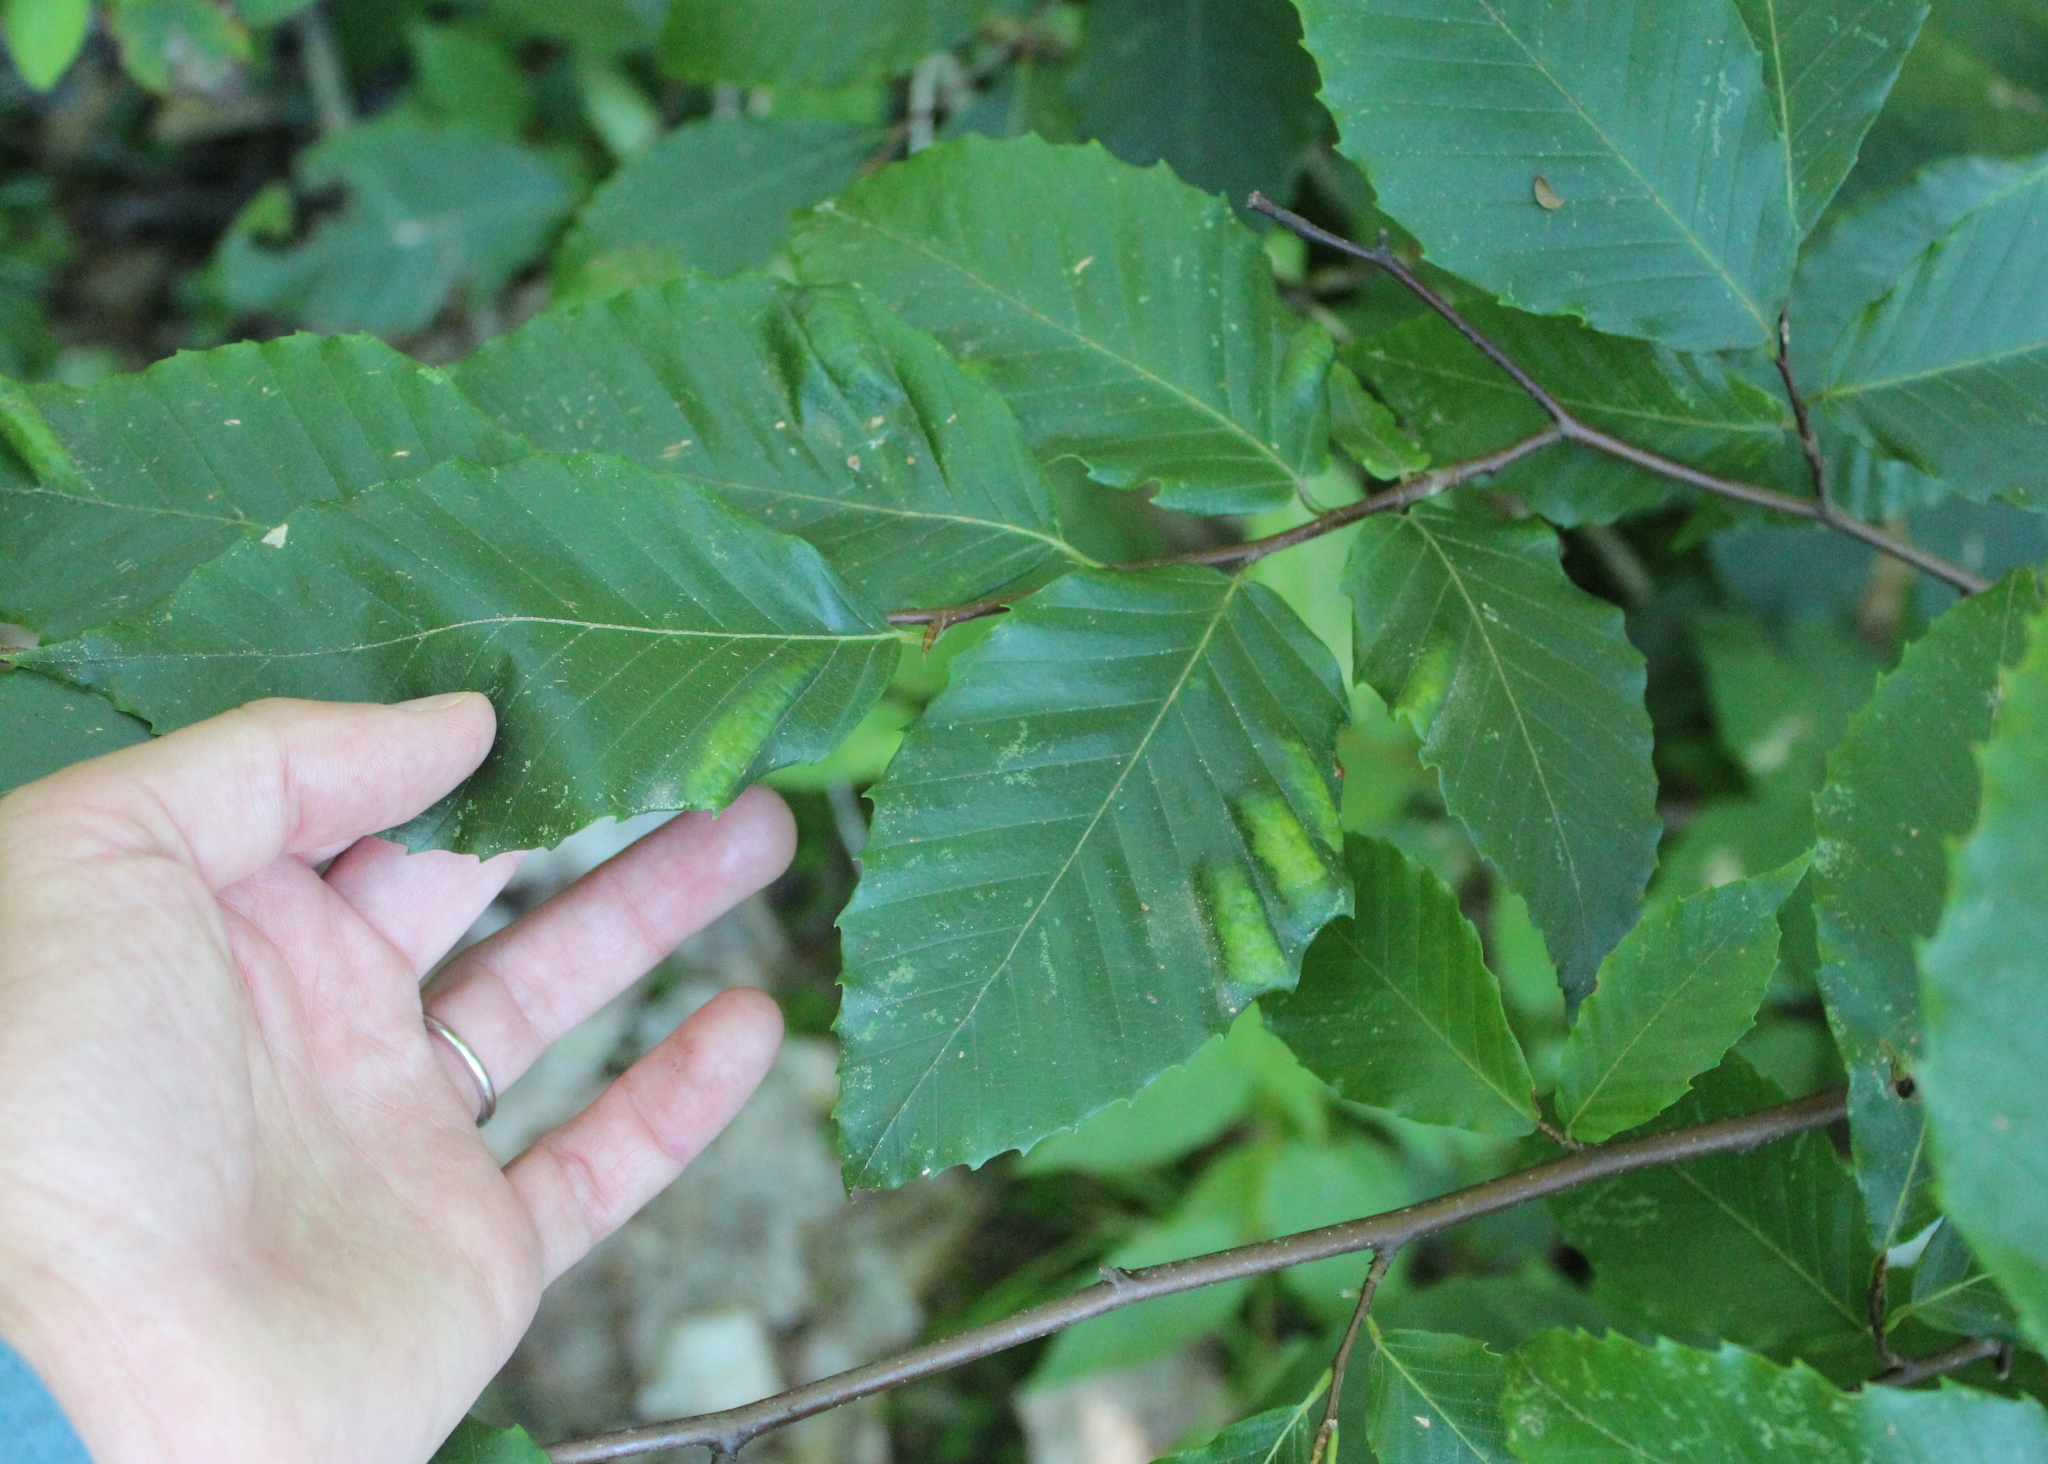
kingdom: Plantae
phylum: Tracheophyta
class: Magnoliopsida
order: Fagales
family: Fagaceae
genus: Fagus
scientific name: Fagus grandifolia
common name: American beech
